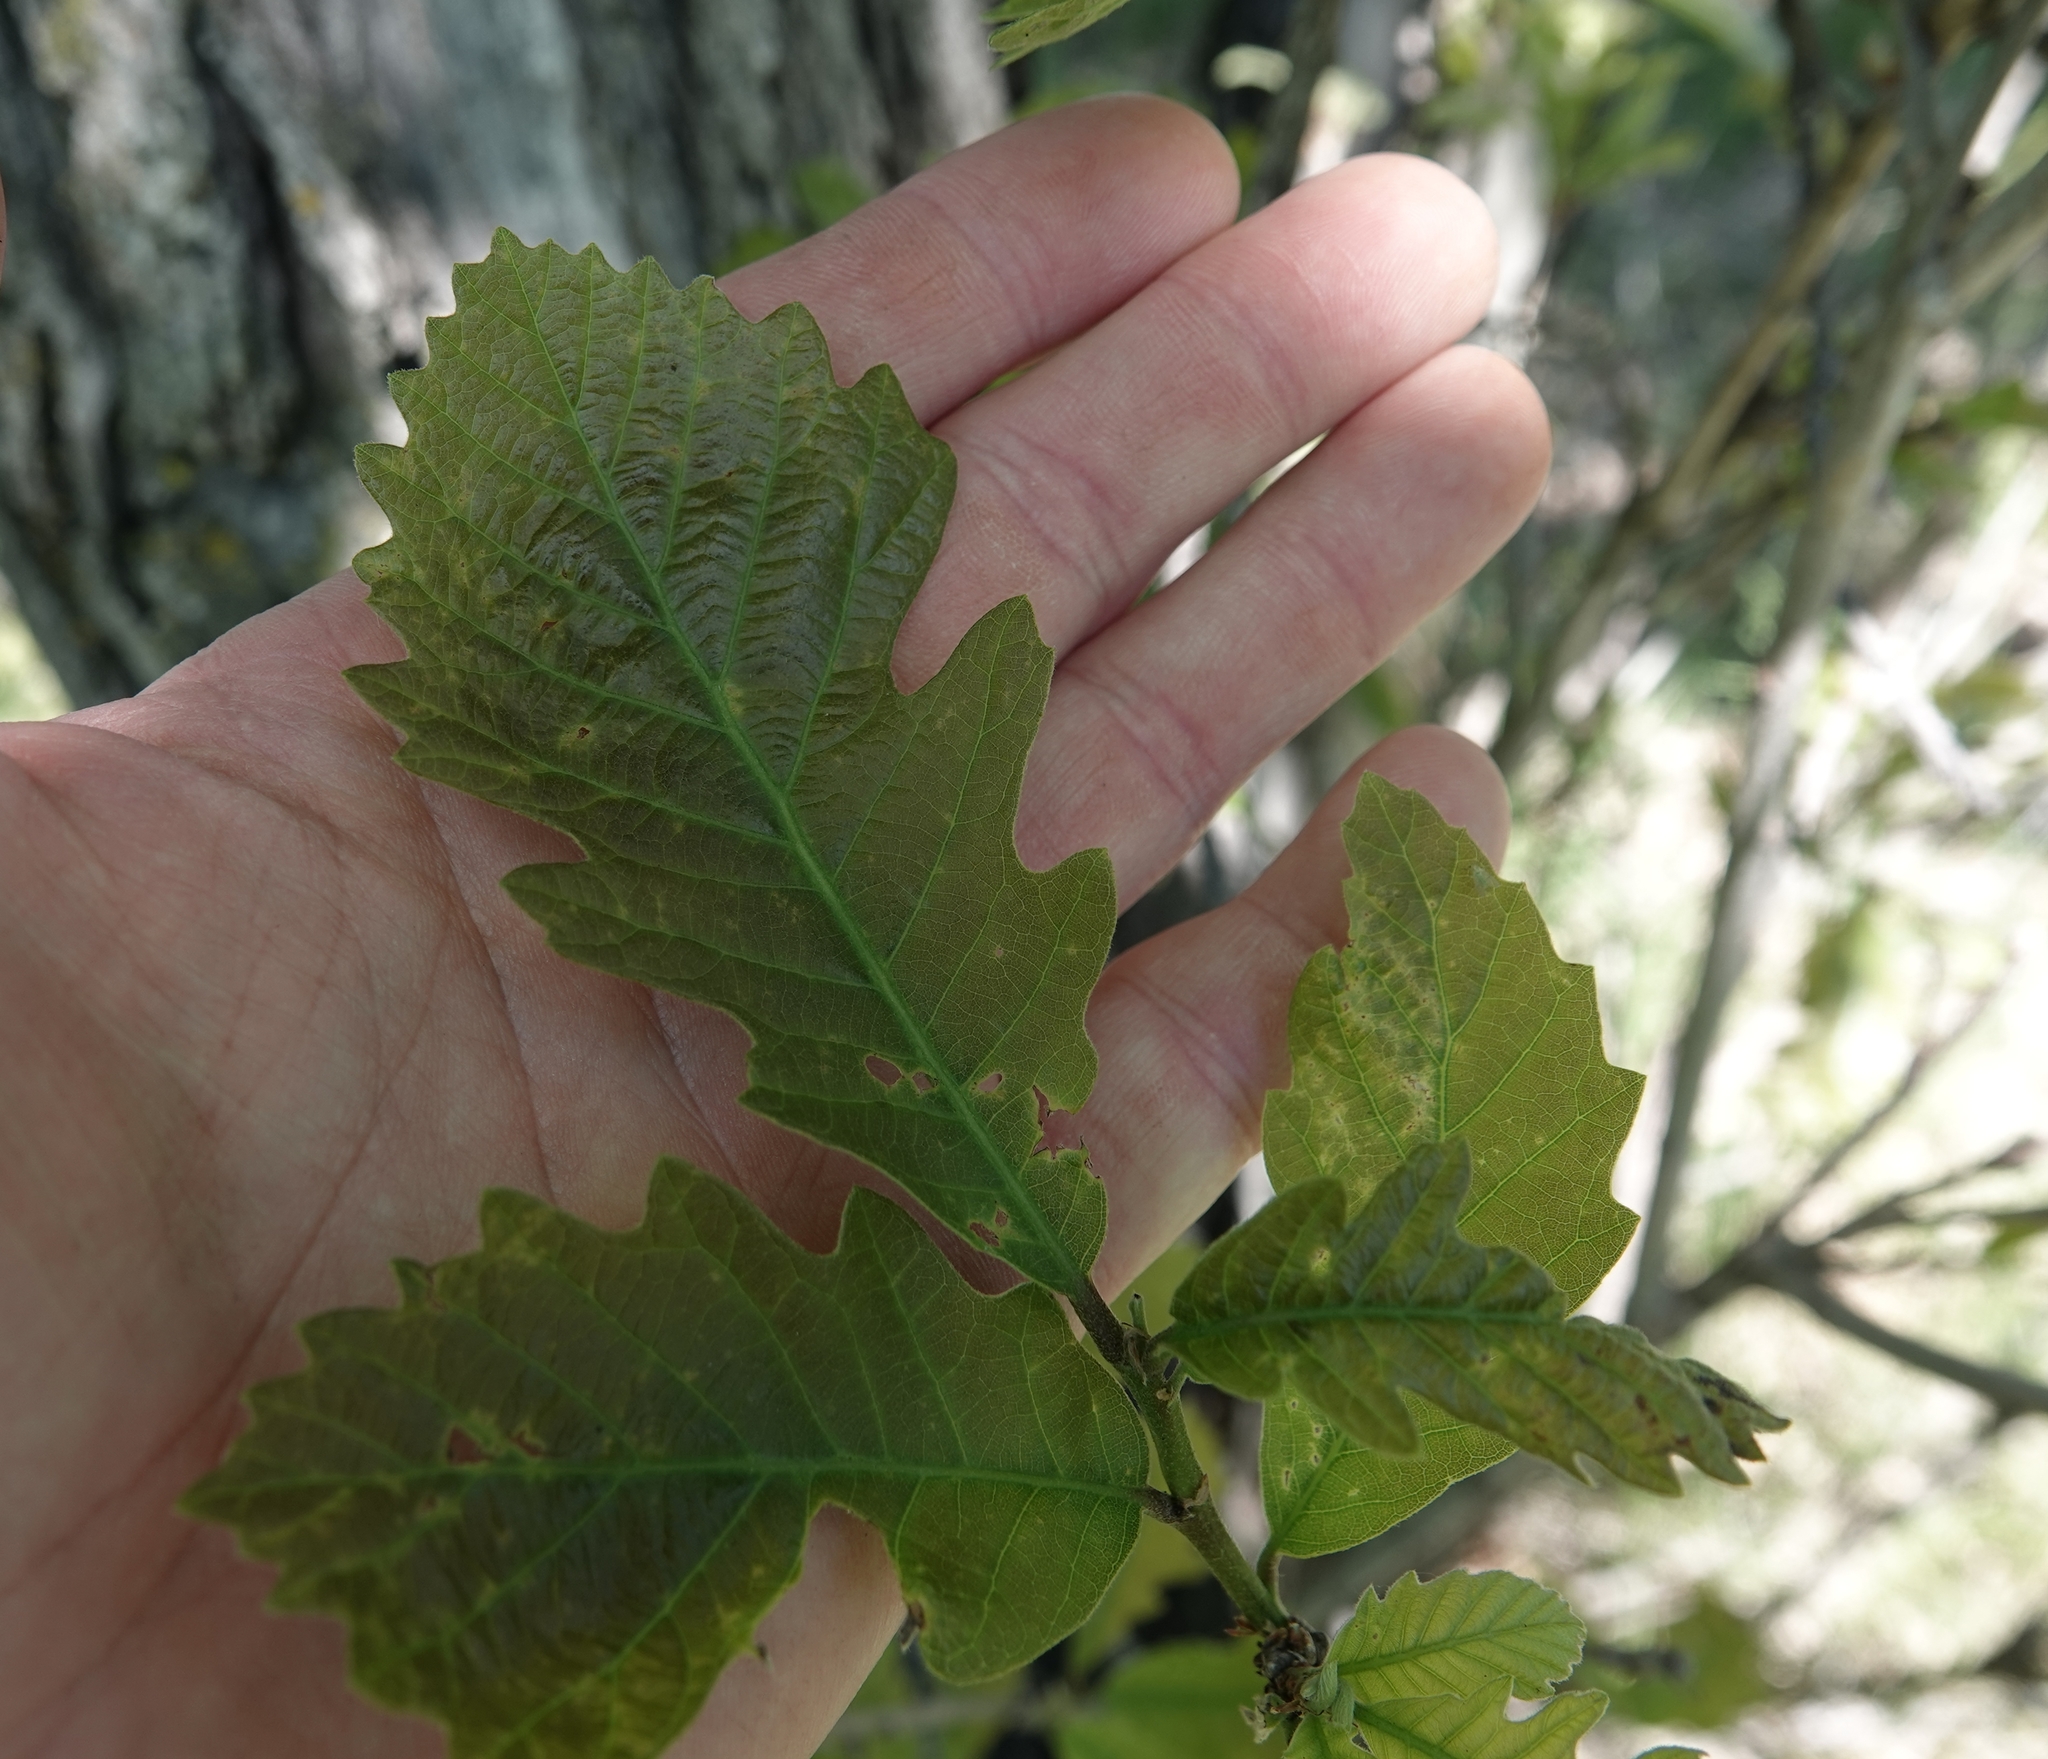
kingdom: Plantae
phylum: Tracheophyta
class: Magnoliopsida
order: Fagales
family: Fagaceae
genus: Quercus
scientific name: Quercus macrocarpa
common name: Bur oak
